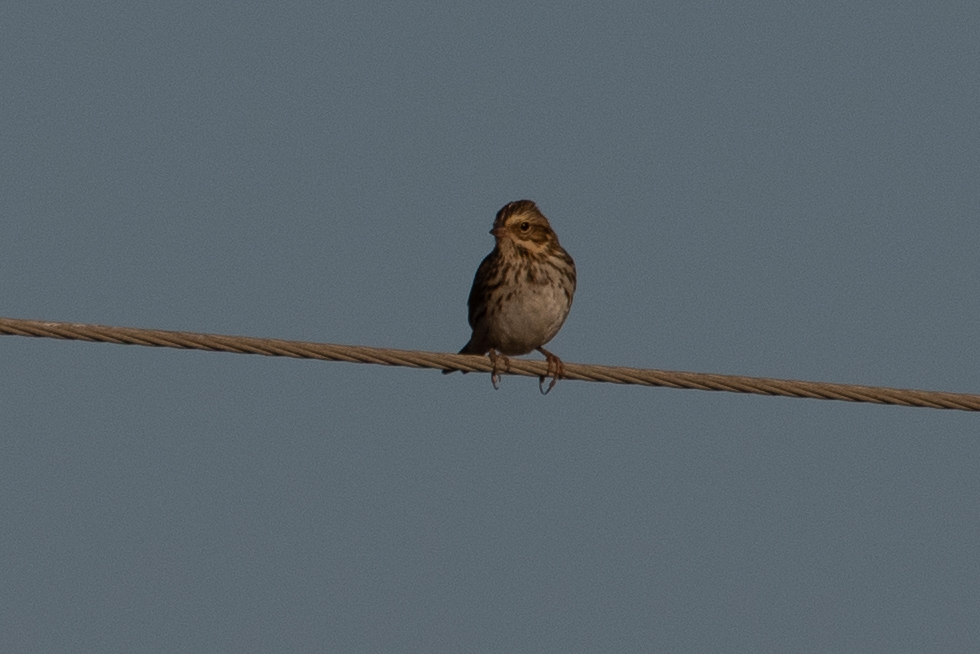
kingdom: Animalia
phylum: Chordata
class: Aves
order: Passeriformes
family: Passerellidae
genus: Passerculus
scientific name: Passerculus sandwichensis
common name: Savannah sparrow
